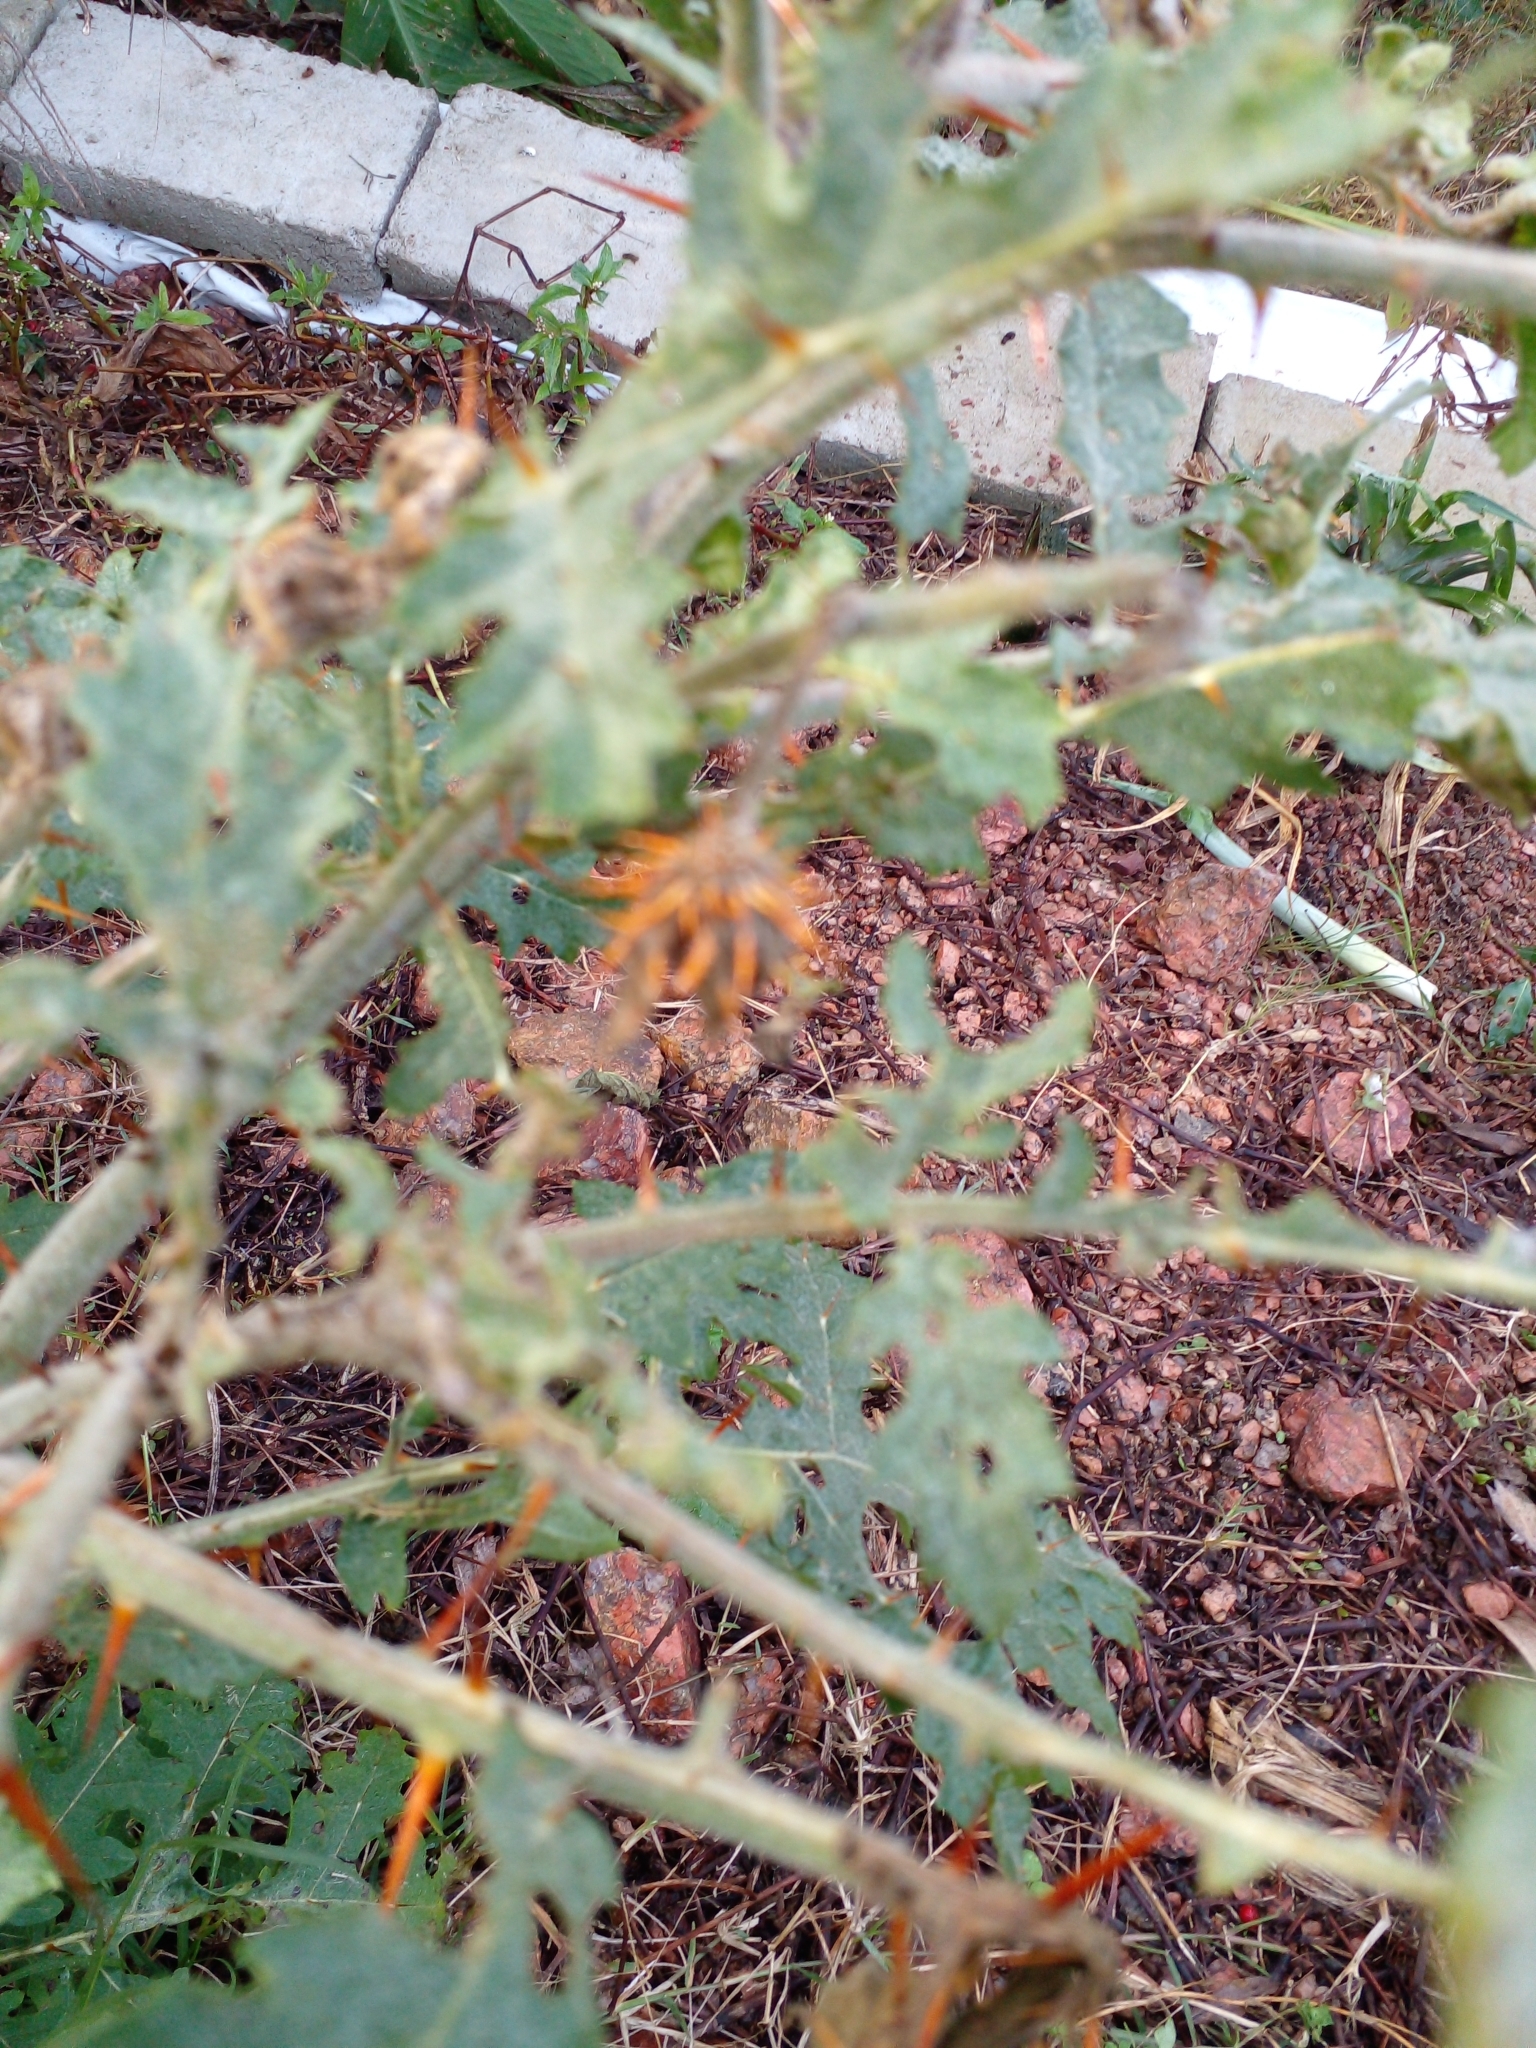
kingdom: Plantae
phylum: Tracheophyta
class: Magnoliopsida
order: Solanales
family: Solanaceae
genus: Solanum
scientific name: Solanum sisymbriifolium
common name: Red buffalo-bur
